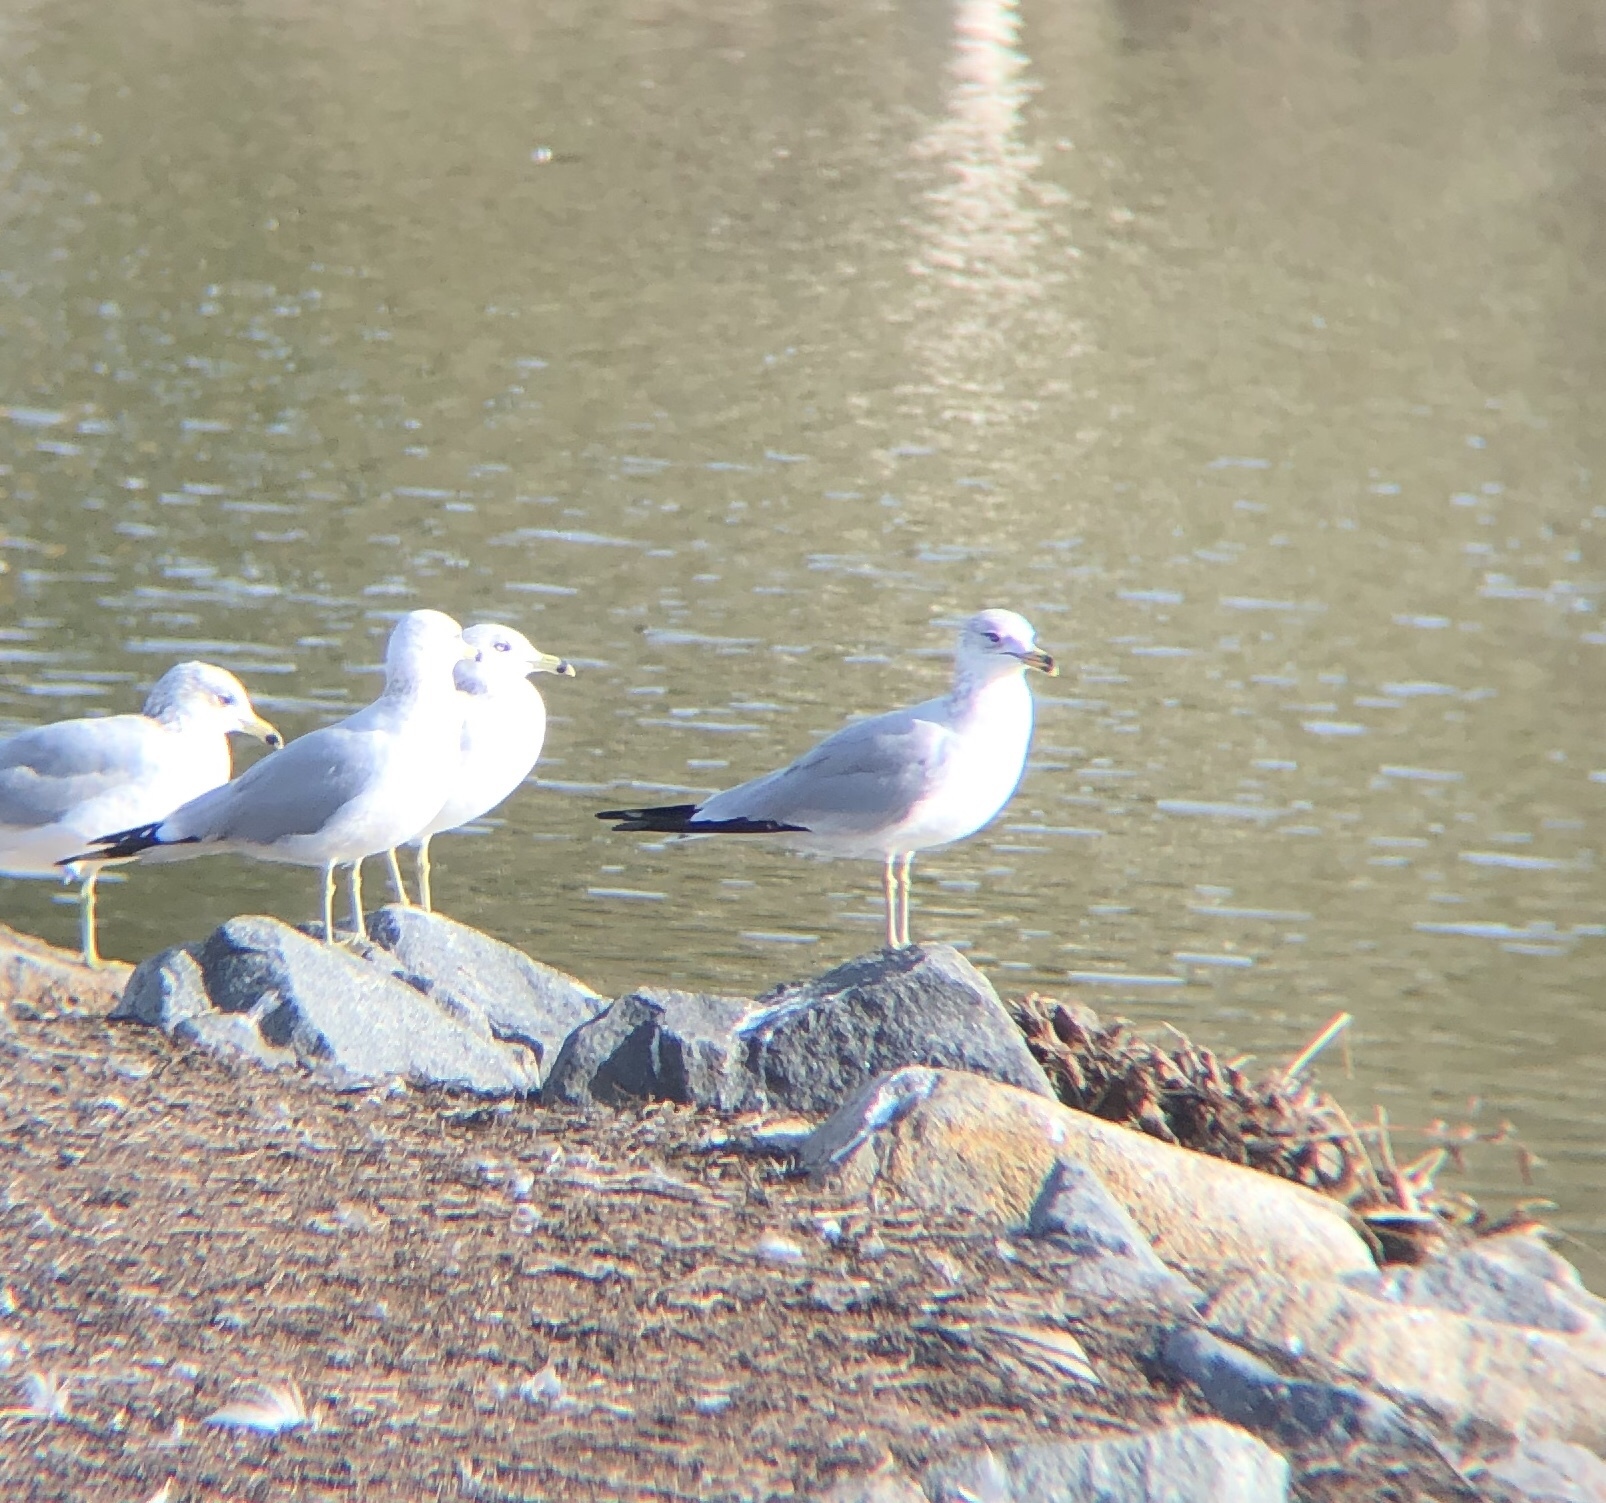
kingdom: Animalia
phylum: Chordata
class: Aves
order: Charadriiformes
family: Laridae
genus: Larus
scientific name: Larus delawarensis
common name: Ring-billed gull
